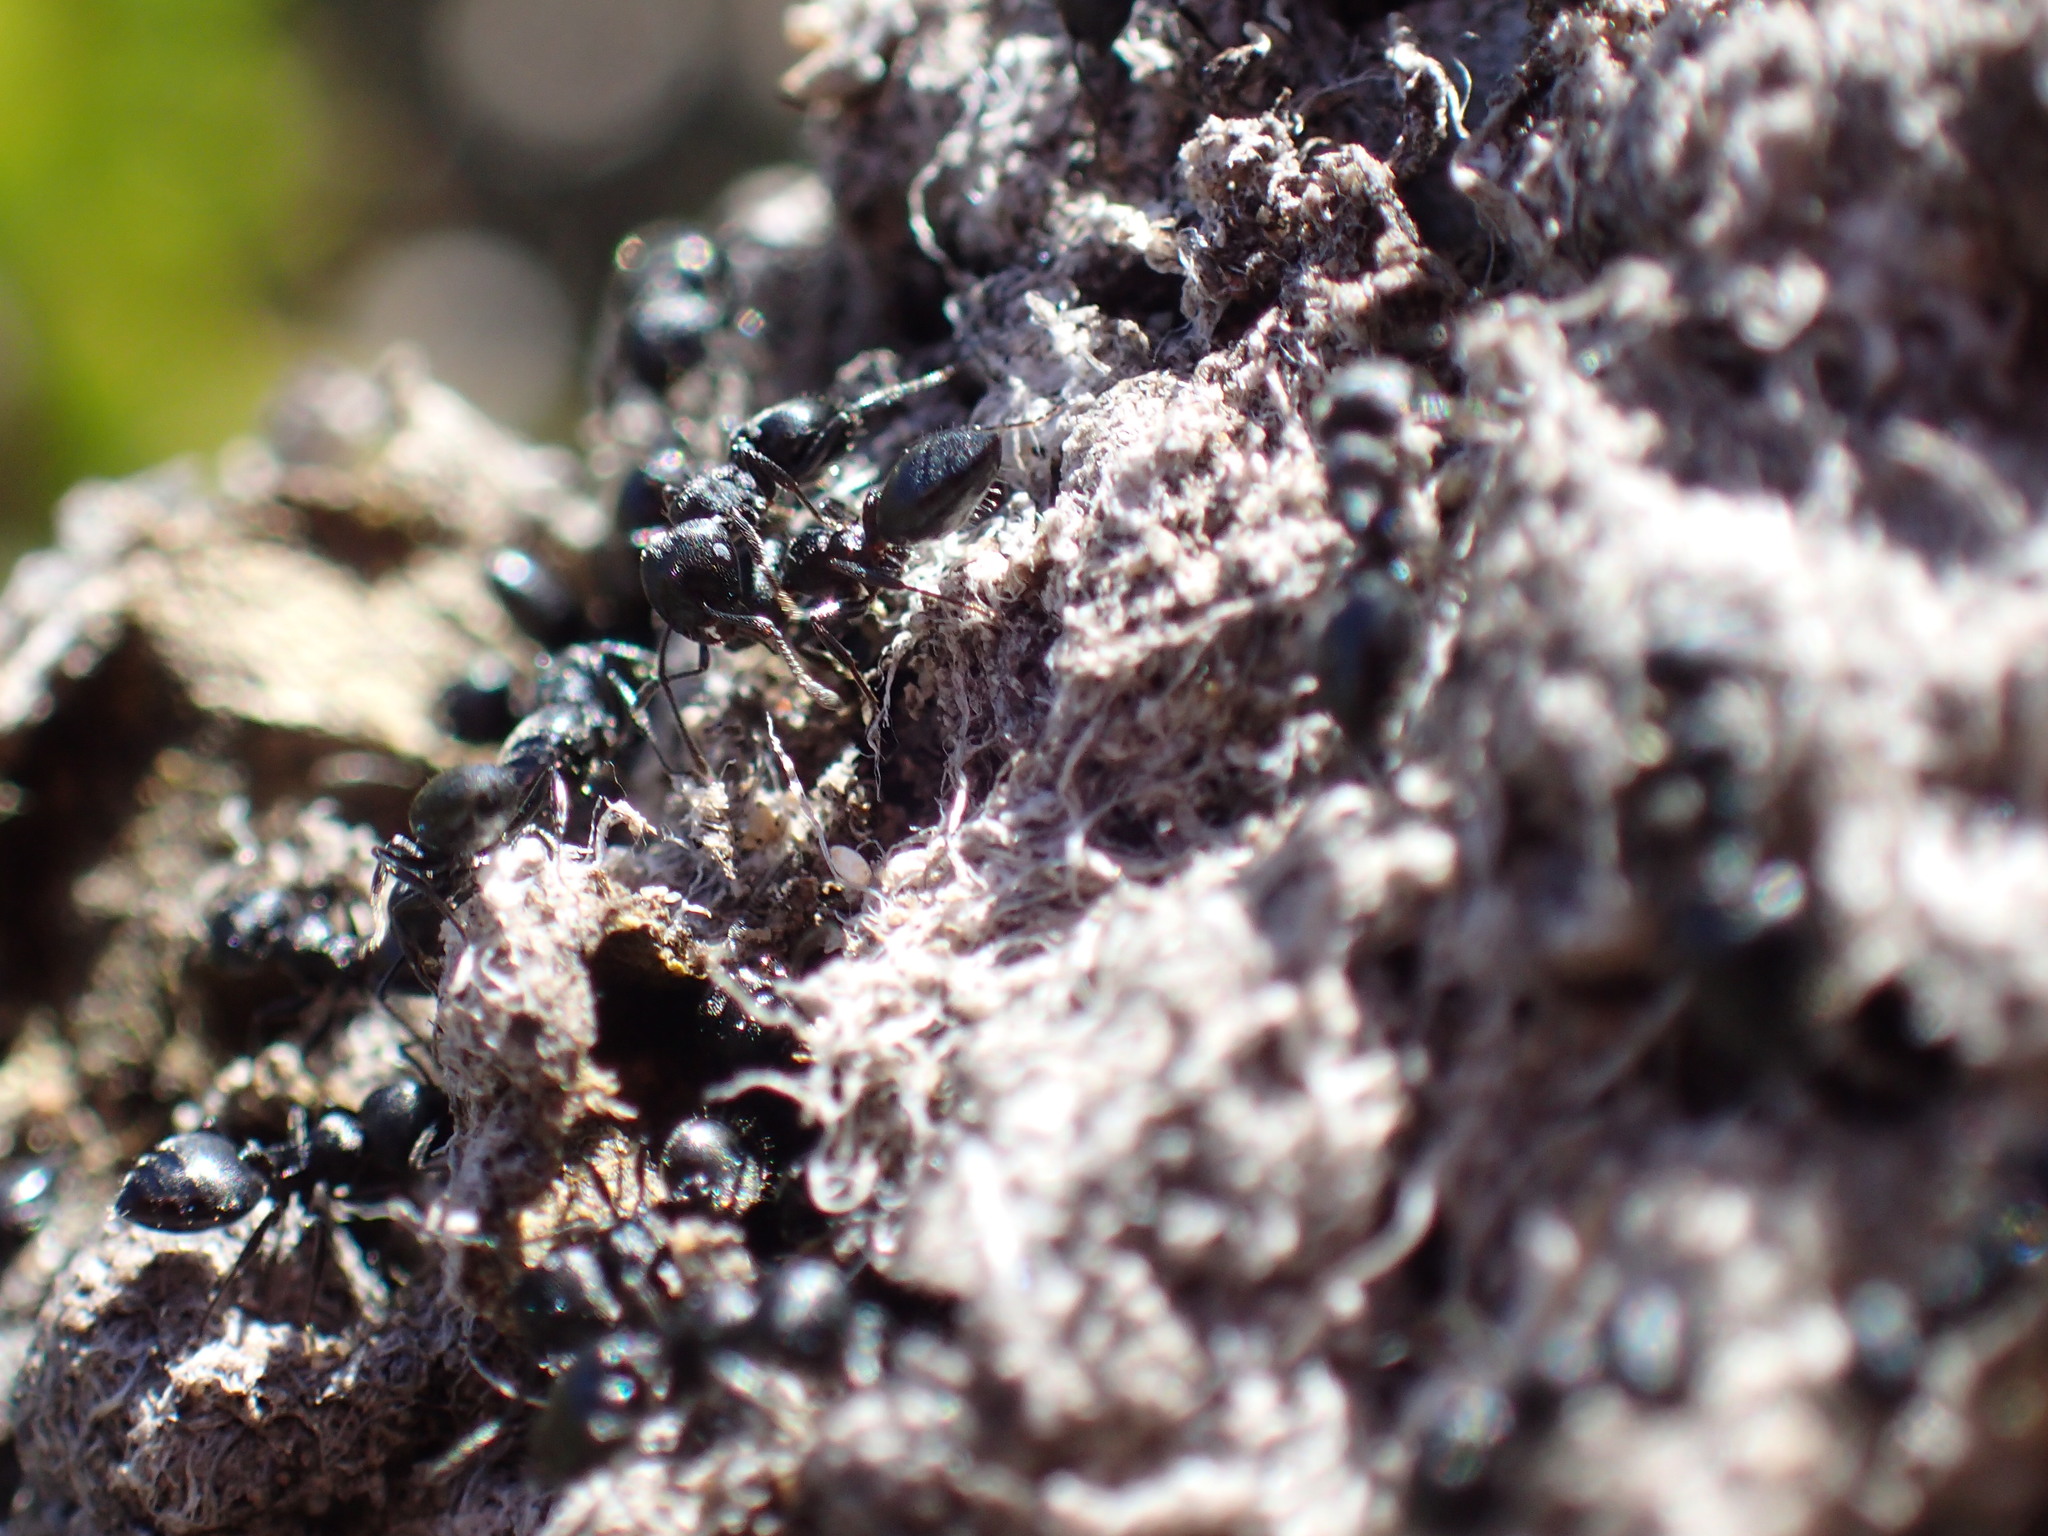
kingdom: Animalia
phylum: Arthropoda
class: Insecta
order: Hymenoptera
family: Formicidae
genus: Crematogaster
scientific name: Crematogaster peringueyi
